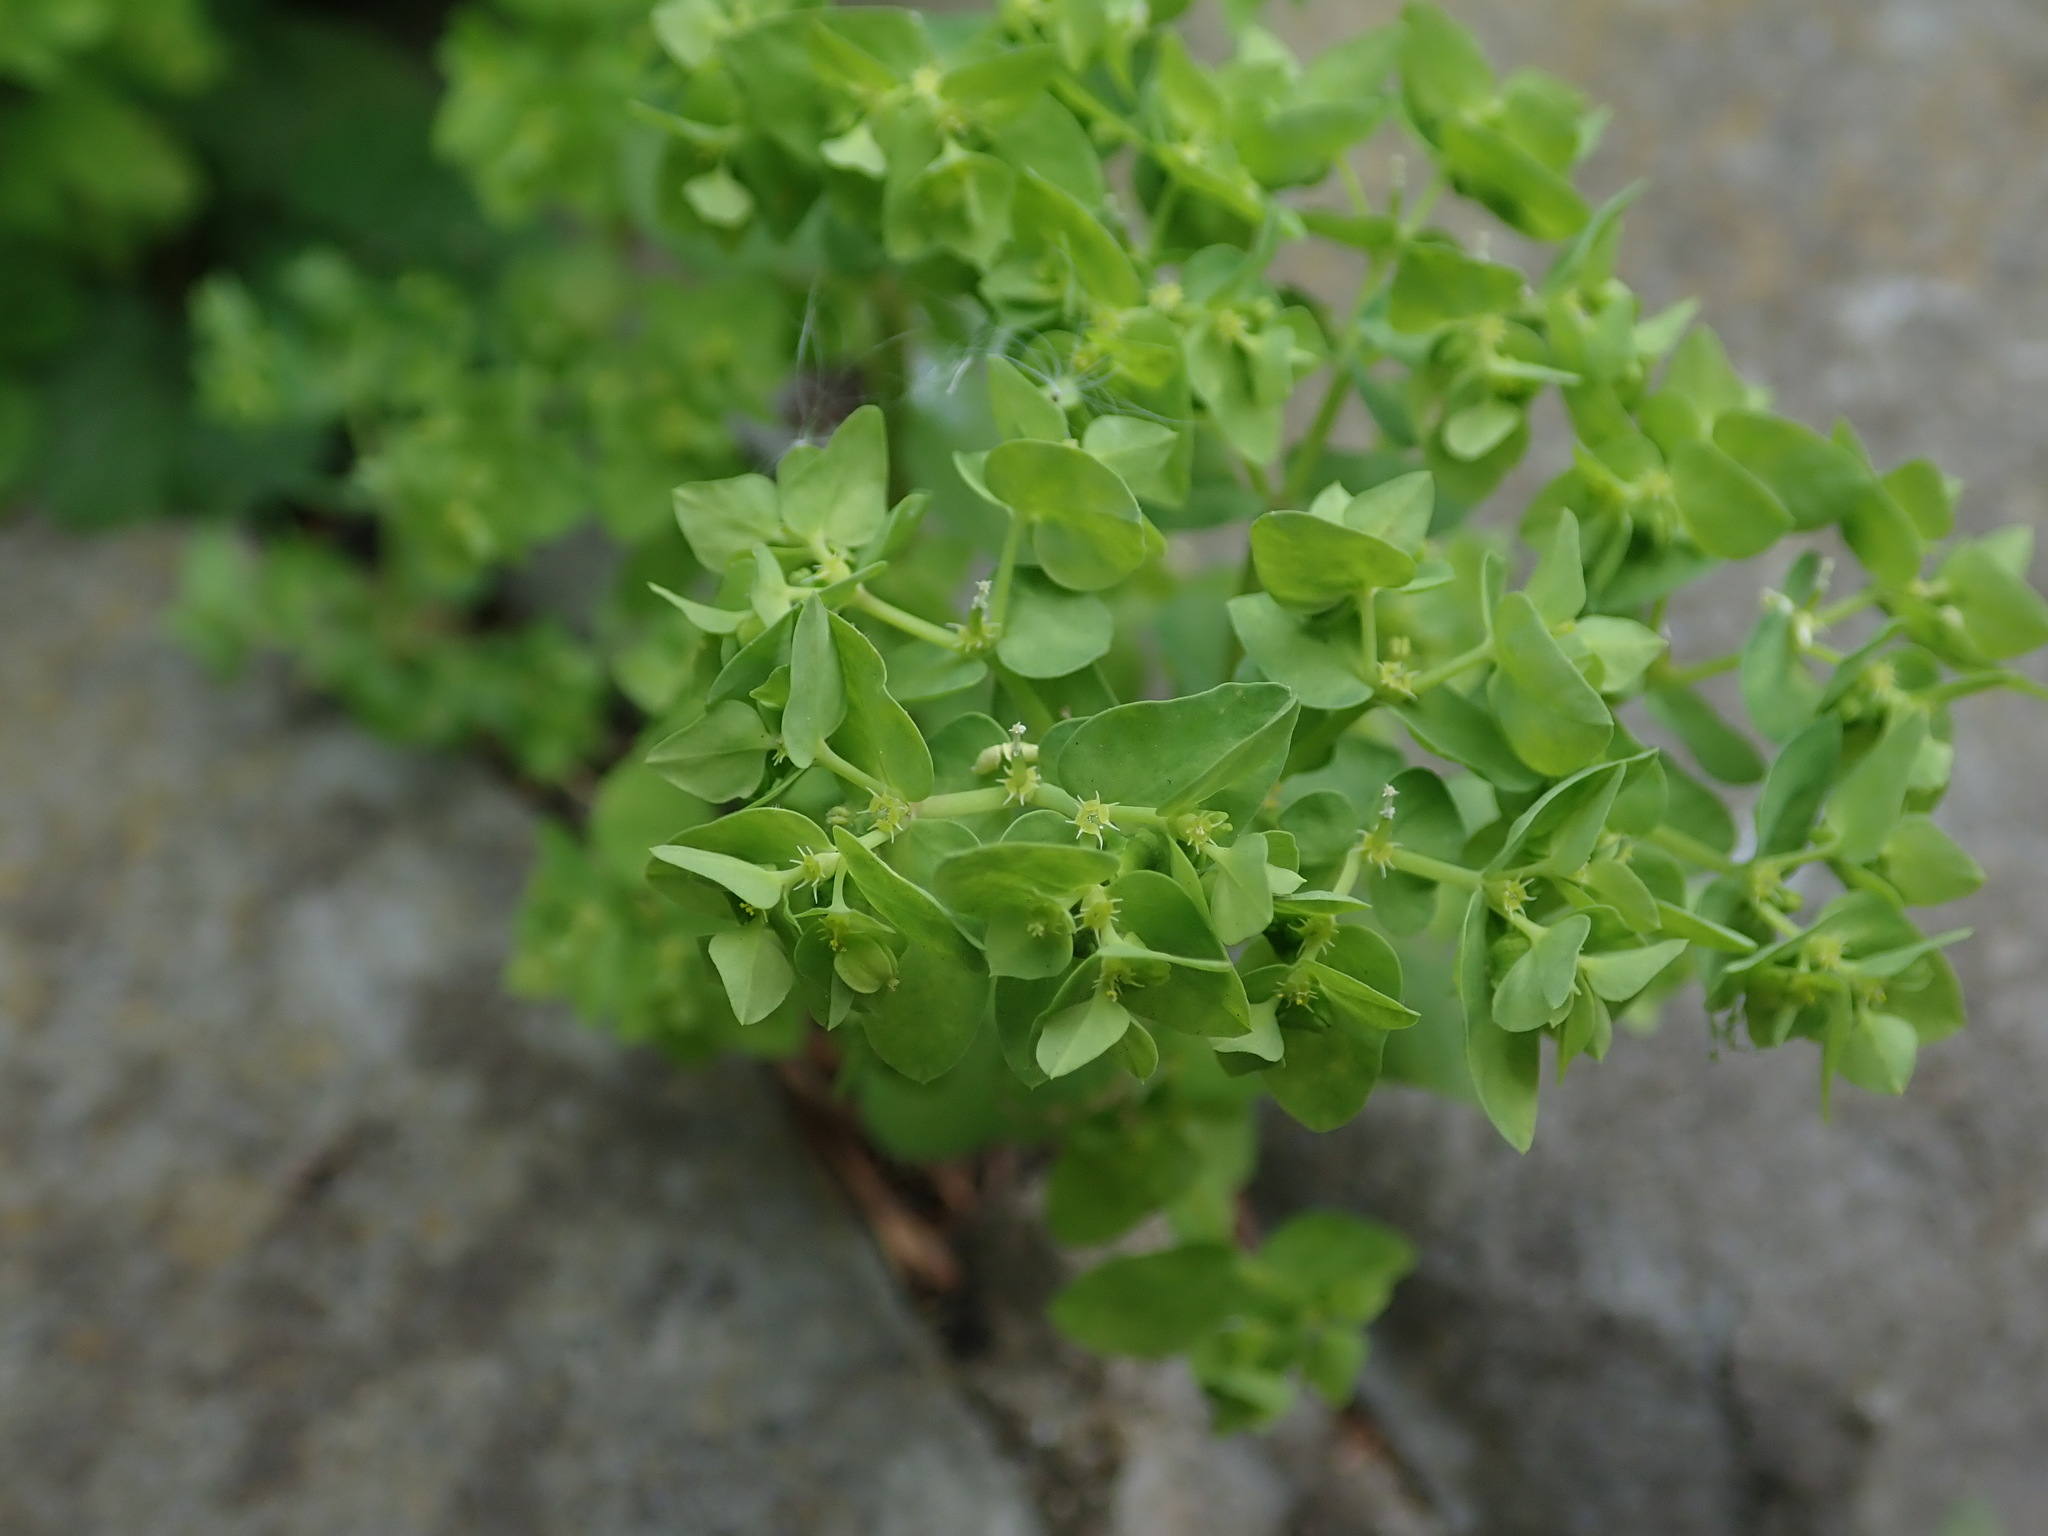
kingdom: Plantae
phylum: Tracheophyta
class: Magnoliopsida
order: Malpighiales
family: Euphorbiaceae
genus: Euphorbia
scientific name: Euphorbia peplus
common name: Petty spurge
